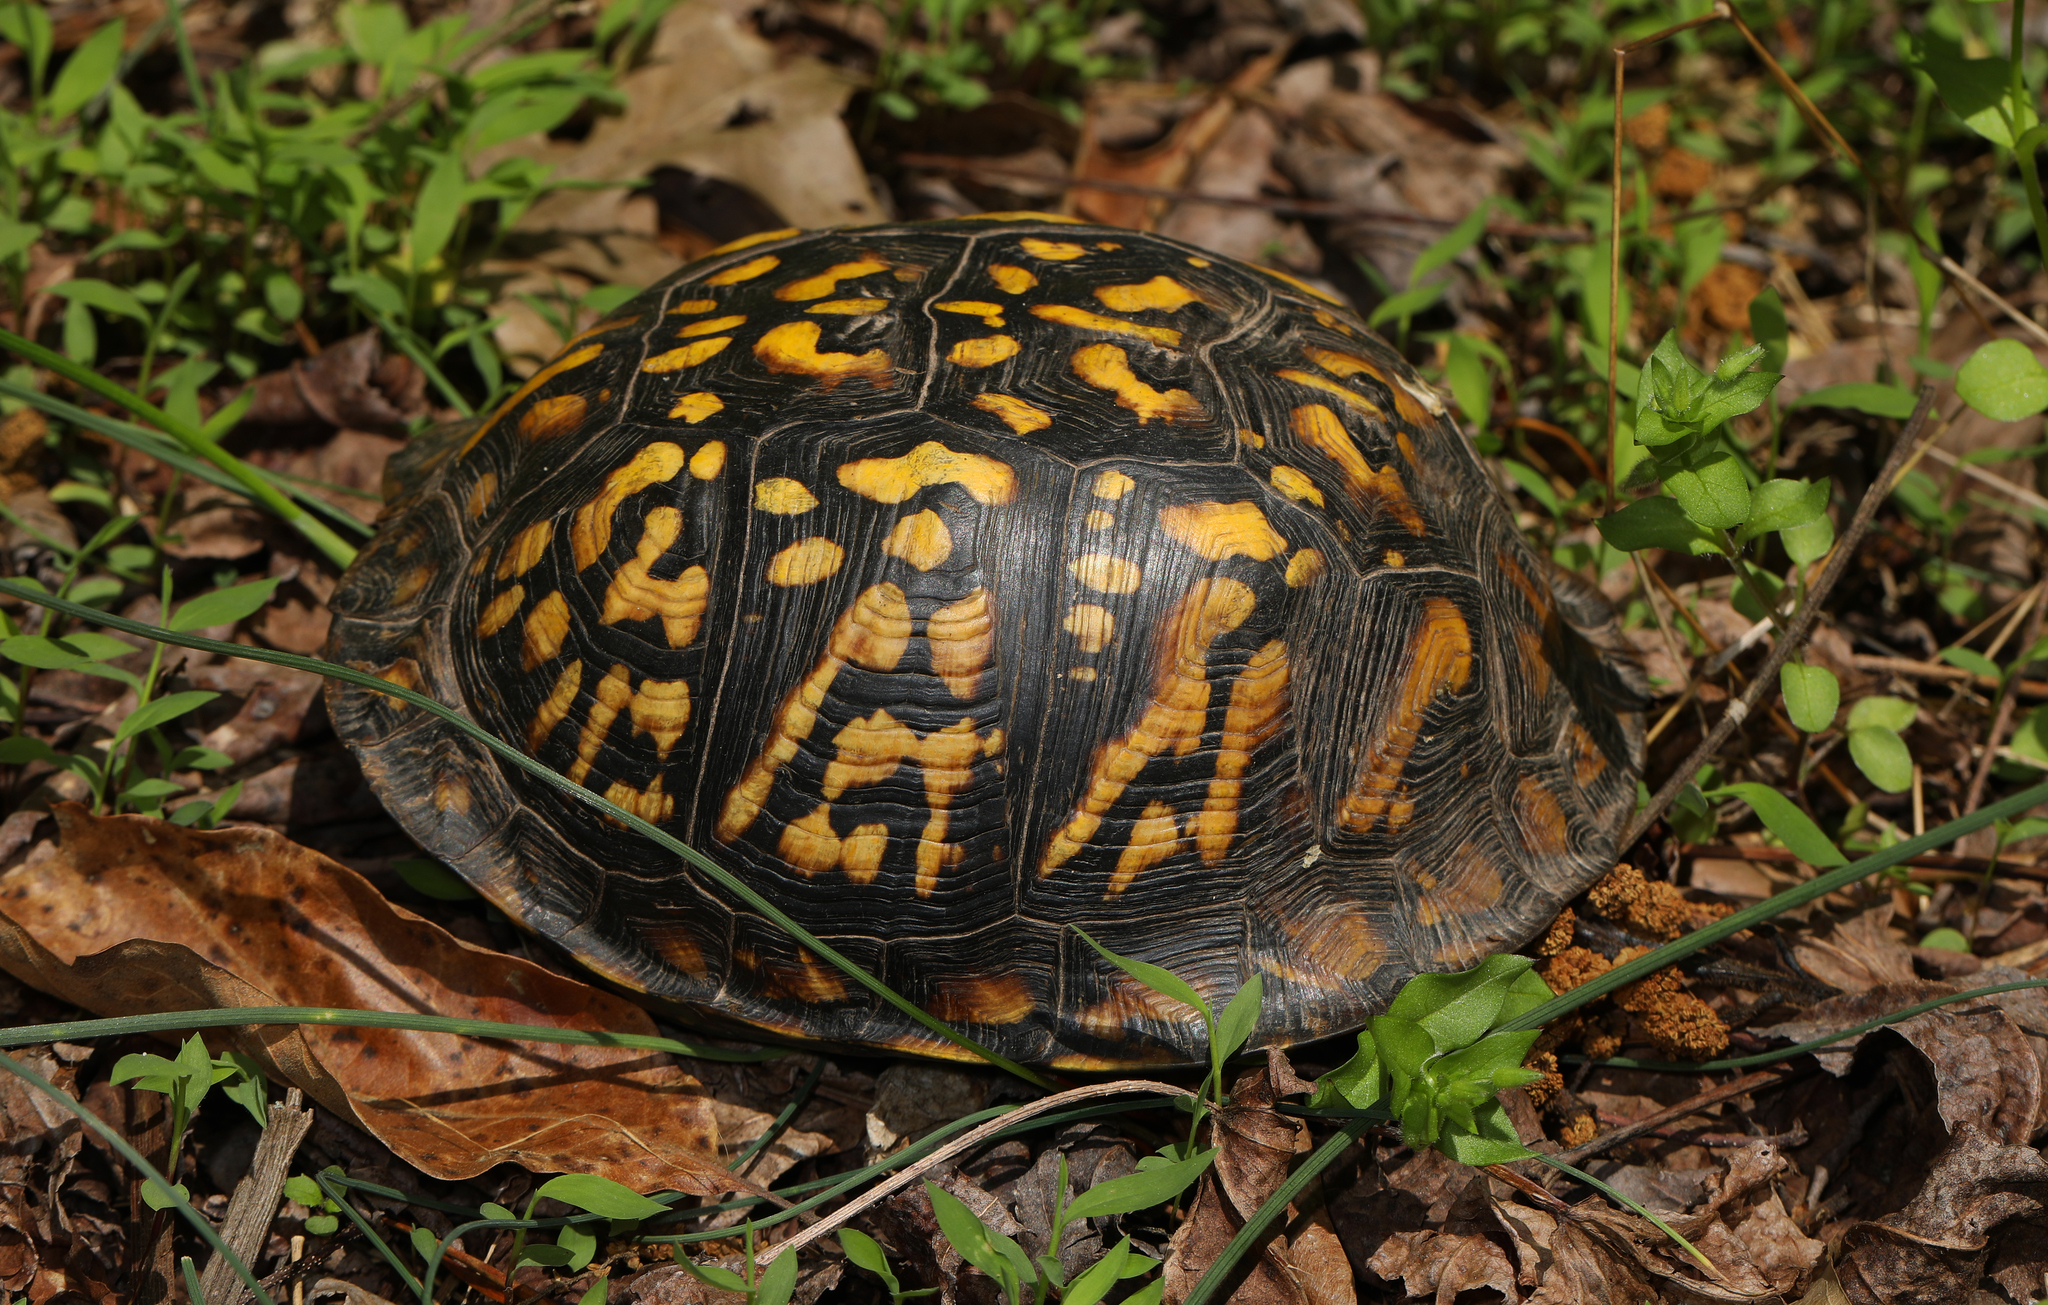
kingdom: Animalia
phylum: Chordata
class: Testudines
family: Emydidae
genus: Terrapene
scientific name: Terrapene carolina
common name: Common box turtle
